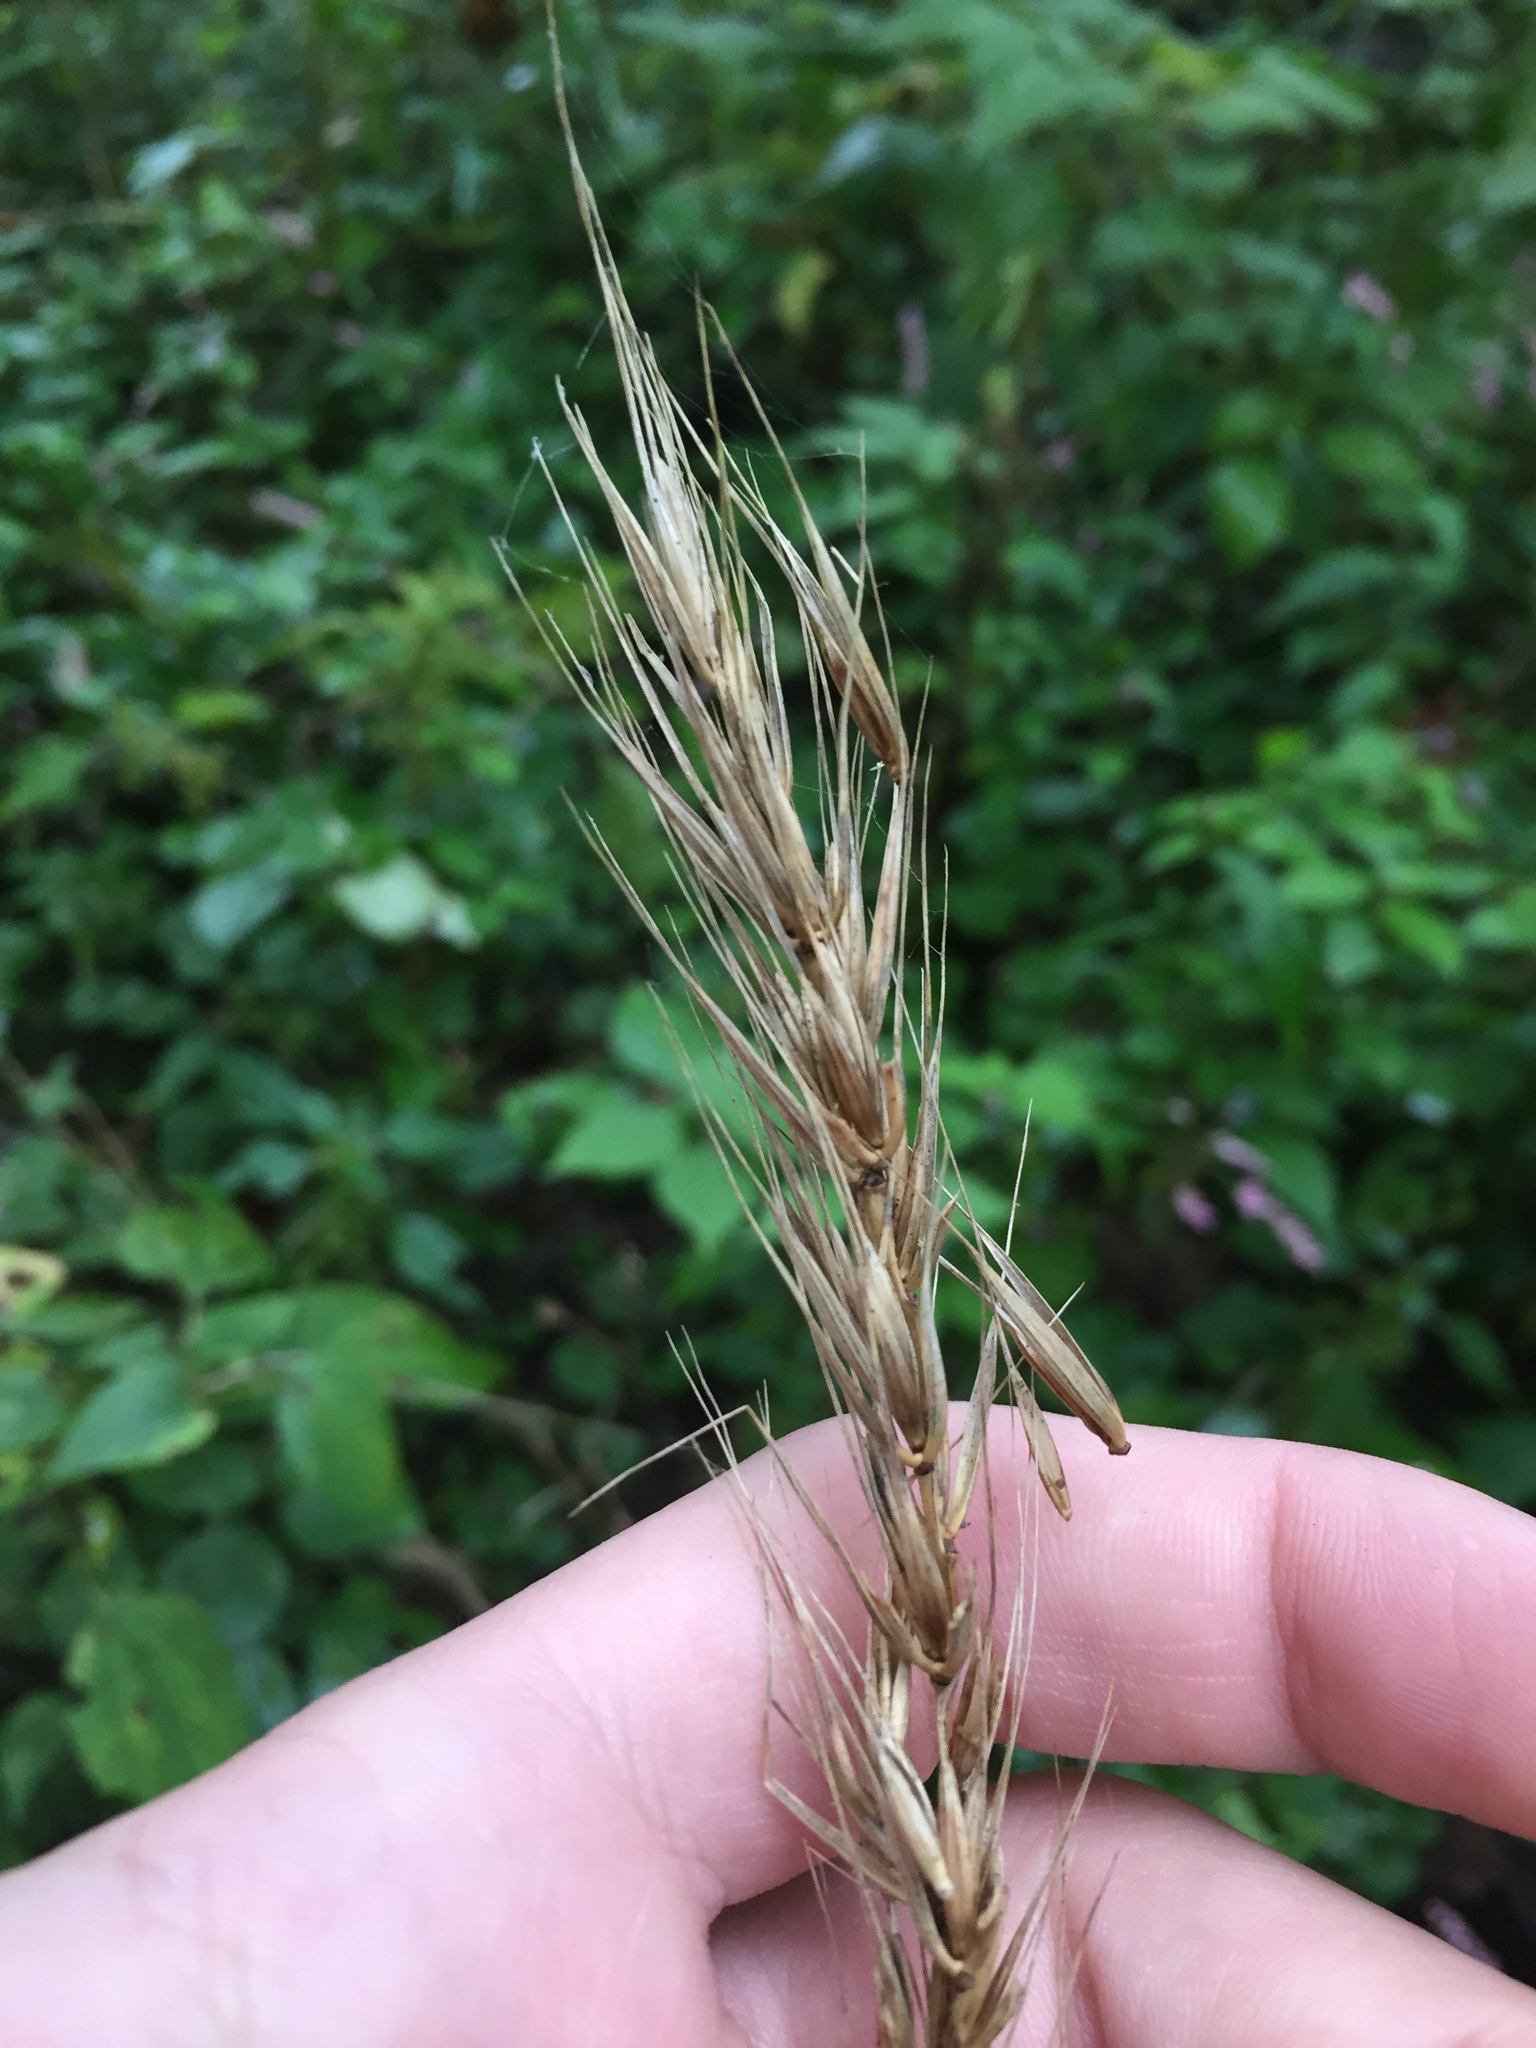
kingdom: Plantae
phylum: Tracheophyta
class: Liliopsida
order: Poales
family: Poaceae
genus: Elymus
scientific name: Elymus virginicus
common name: Common eastern wildrye
